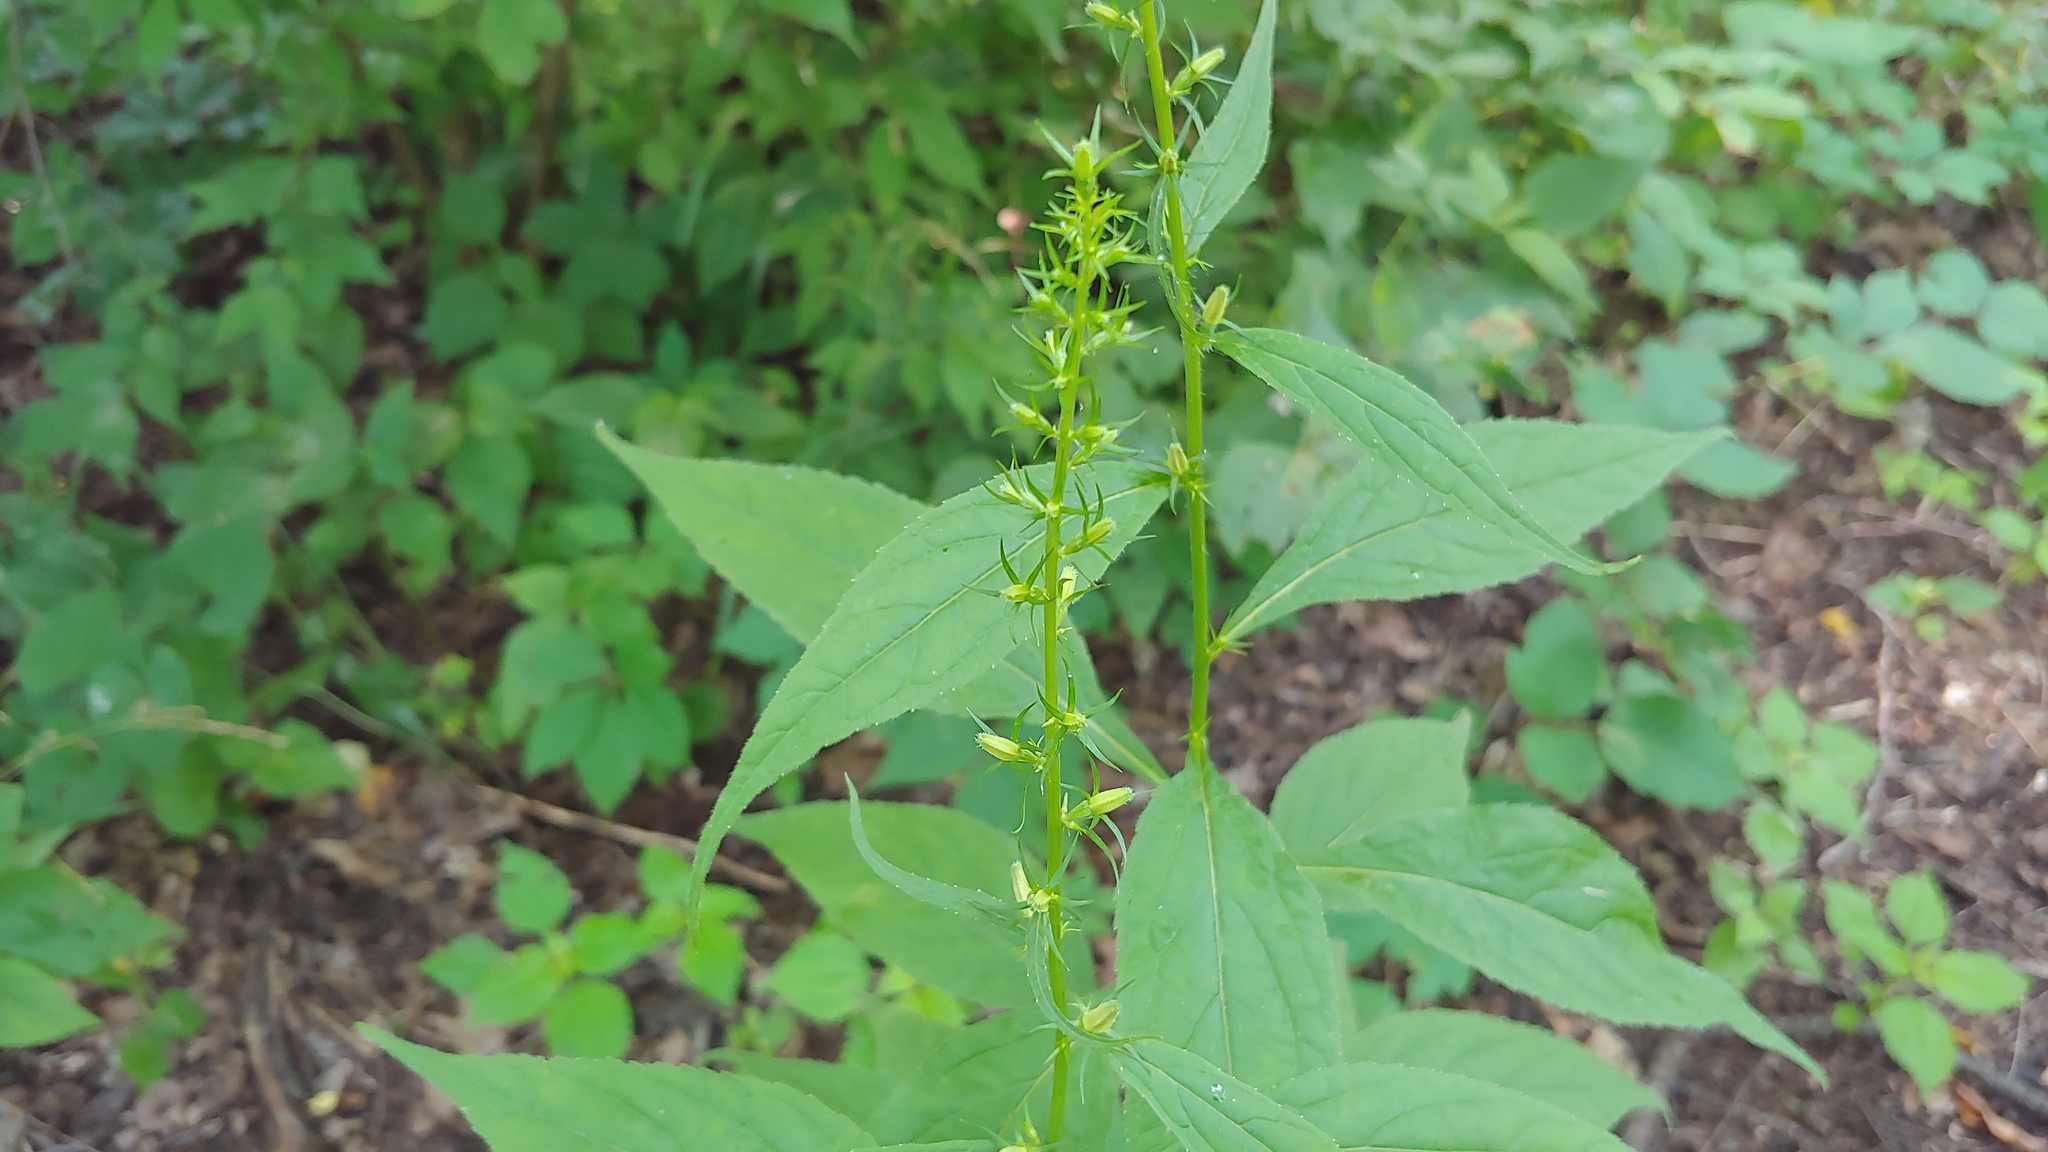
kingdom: Plantae
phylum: Tracheophyta
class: Magnoliopsida
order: Asterales
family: Campanulaceae
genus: Campanulastrum
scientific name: Campanulastrum americanum
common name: American bellflower
